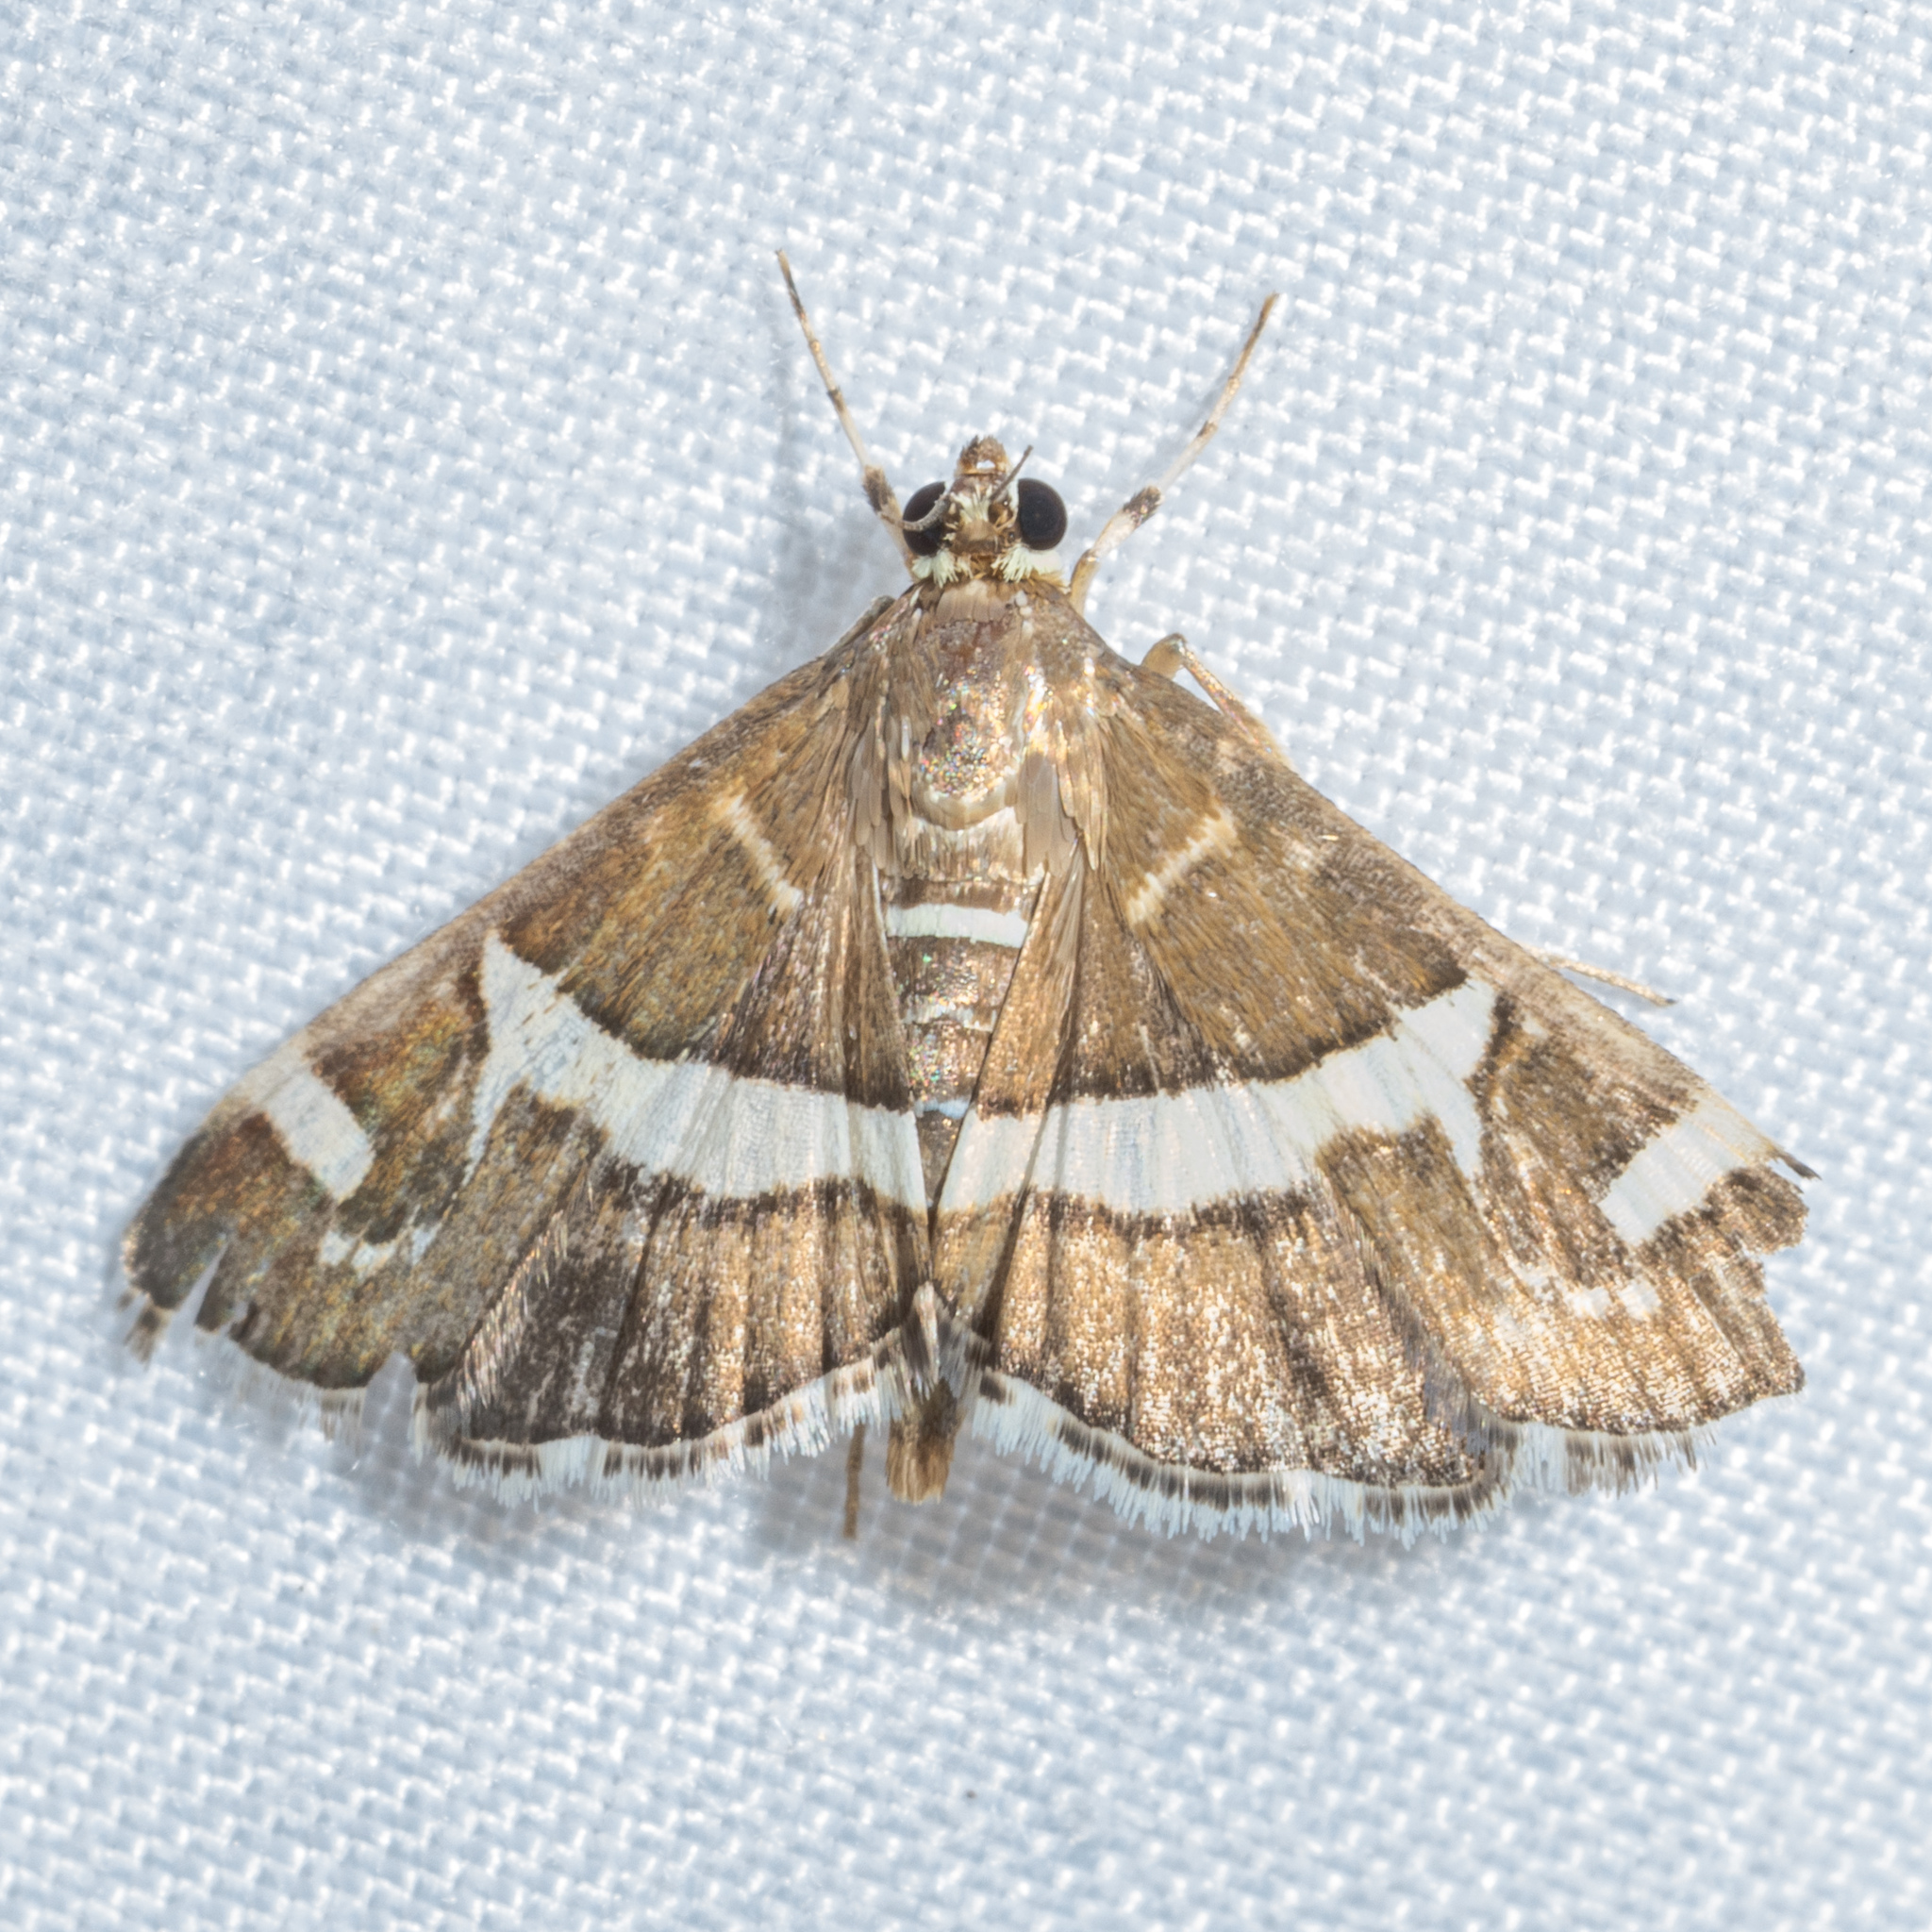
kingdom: Animalia
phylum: Arthropoda
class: Insecta
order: Lepidoptera
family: Crambidae
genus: Spoladea
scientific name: Spoladea recurvalis
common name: Beet webworm moth
